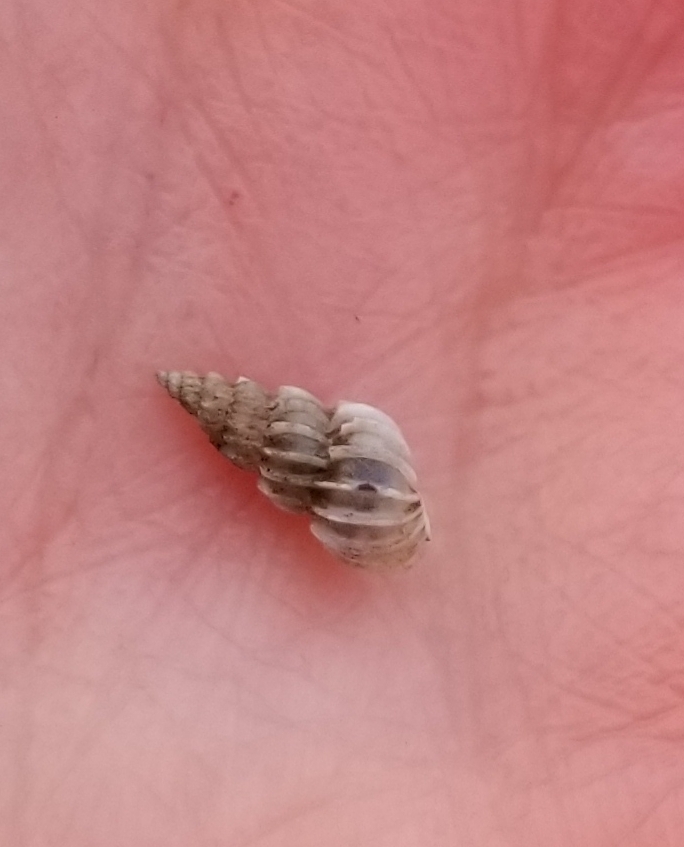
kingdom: Animalia
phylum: Mollusca
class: Gastropoda
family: Epitoniidae
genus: Epitonium
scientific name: Epitonium tinctum
